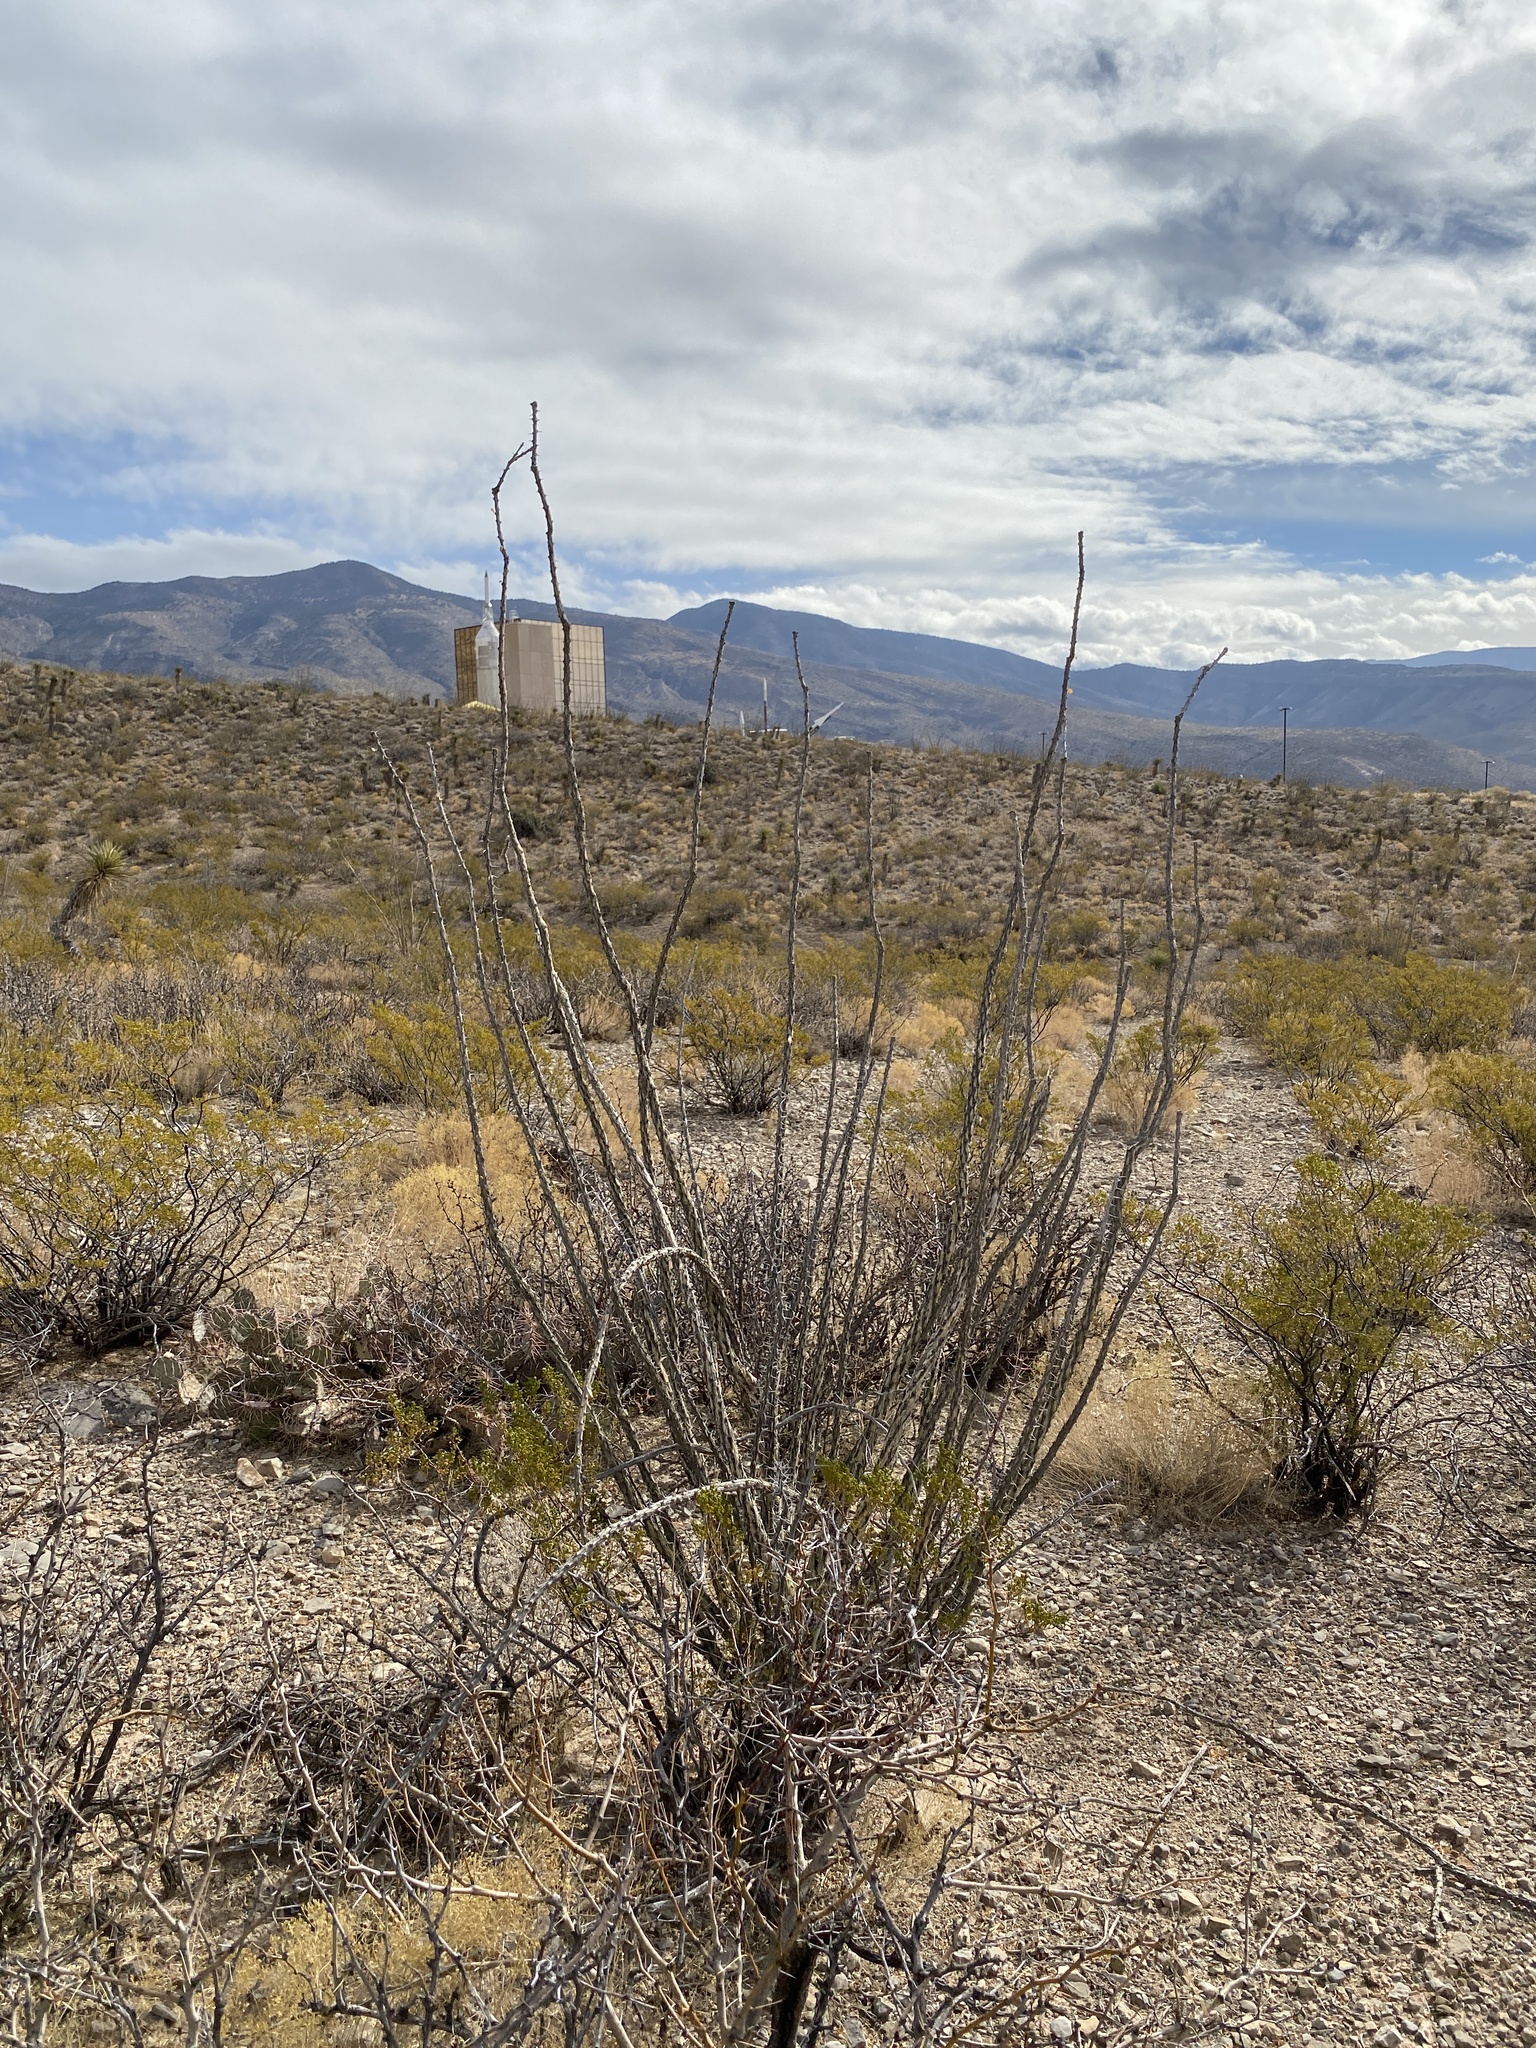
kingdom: Plantae
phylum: Tracheophyta
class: Magnoliopsida
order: Ericales
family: Fouquieriaceae
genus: Fouquieria
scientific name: Fouquieria splendens
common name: Vine-cactus
